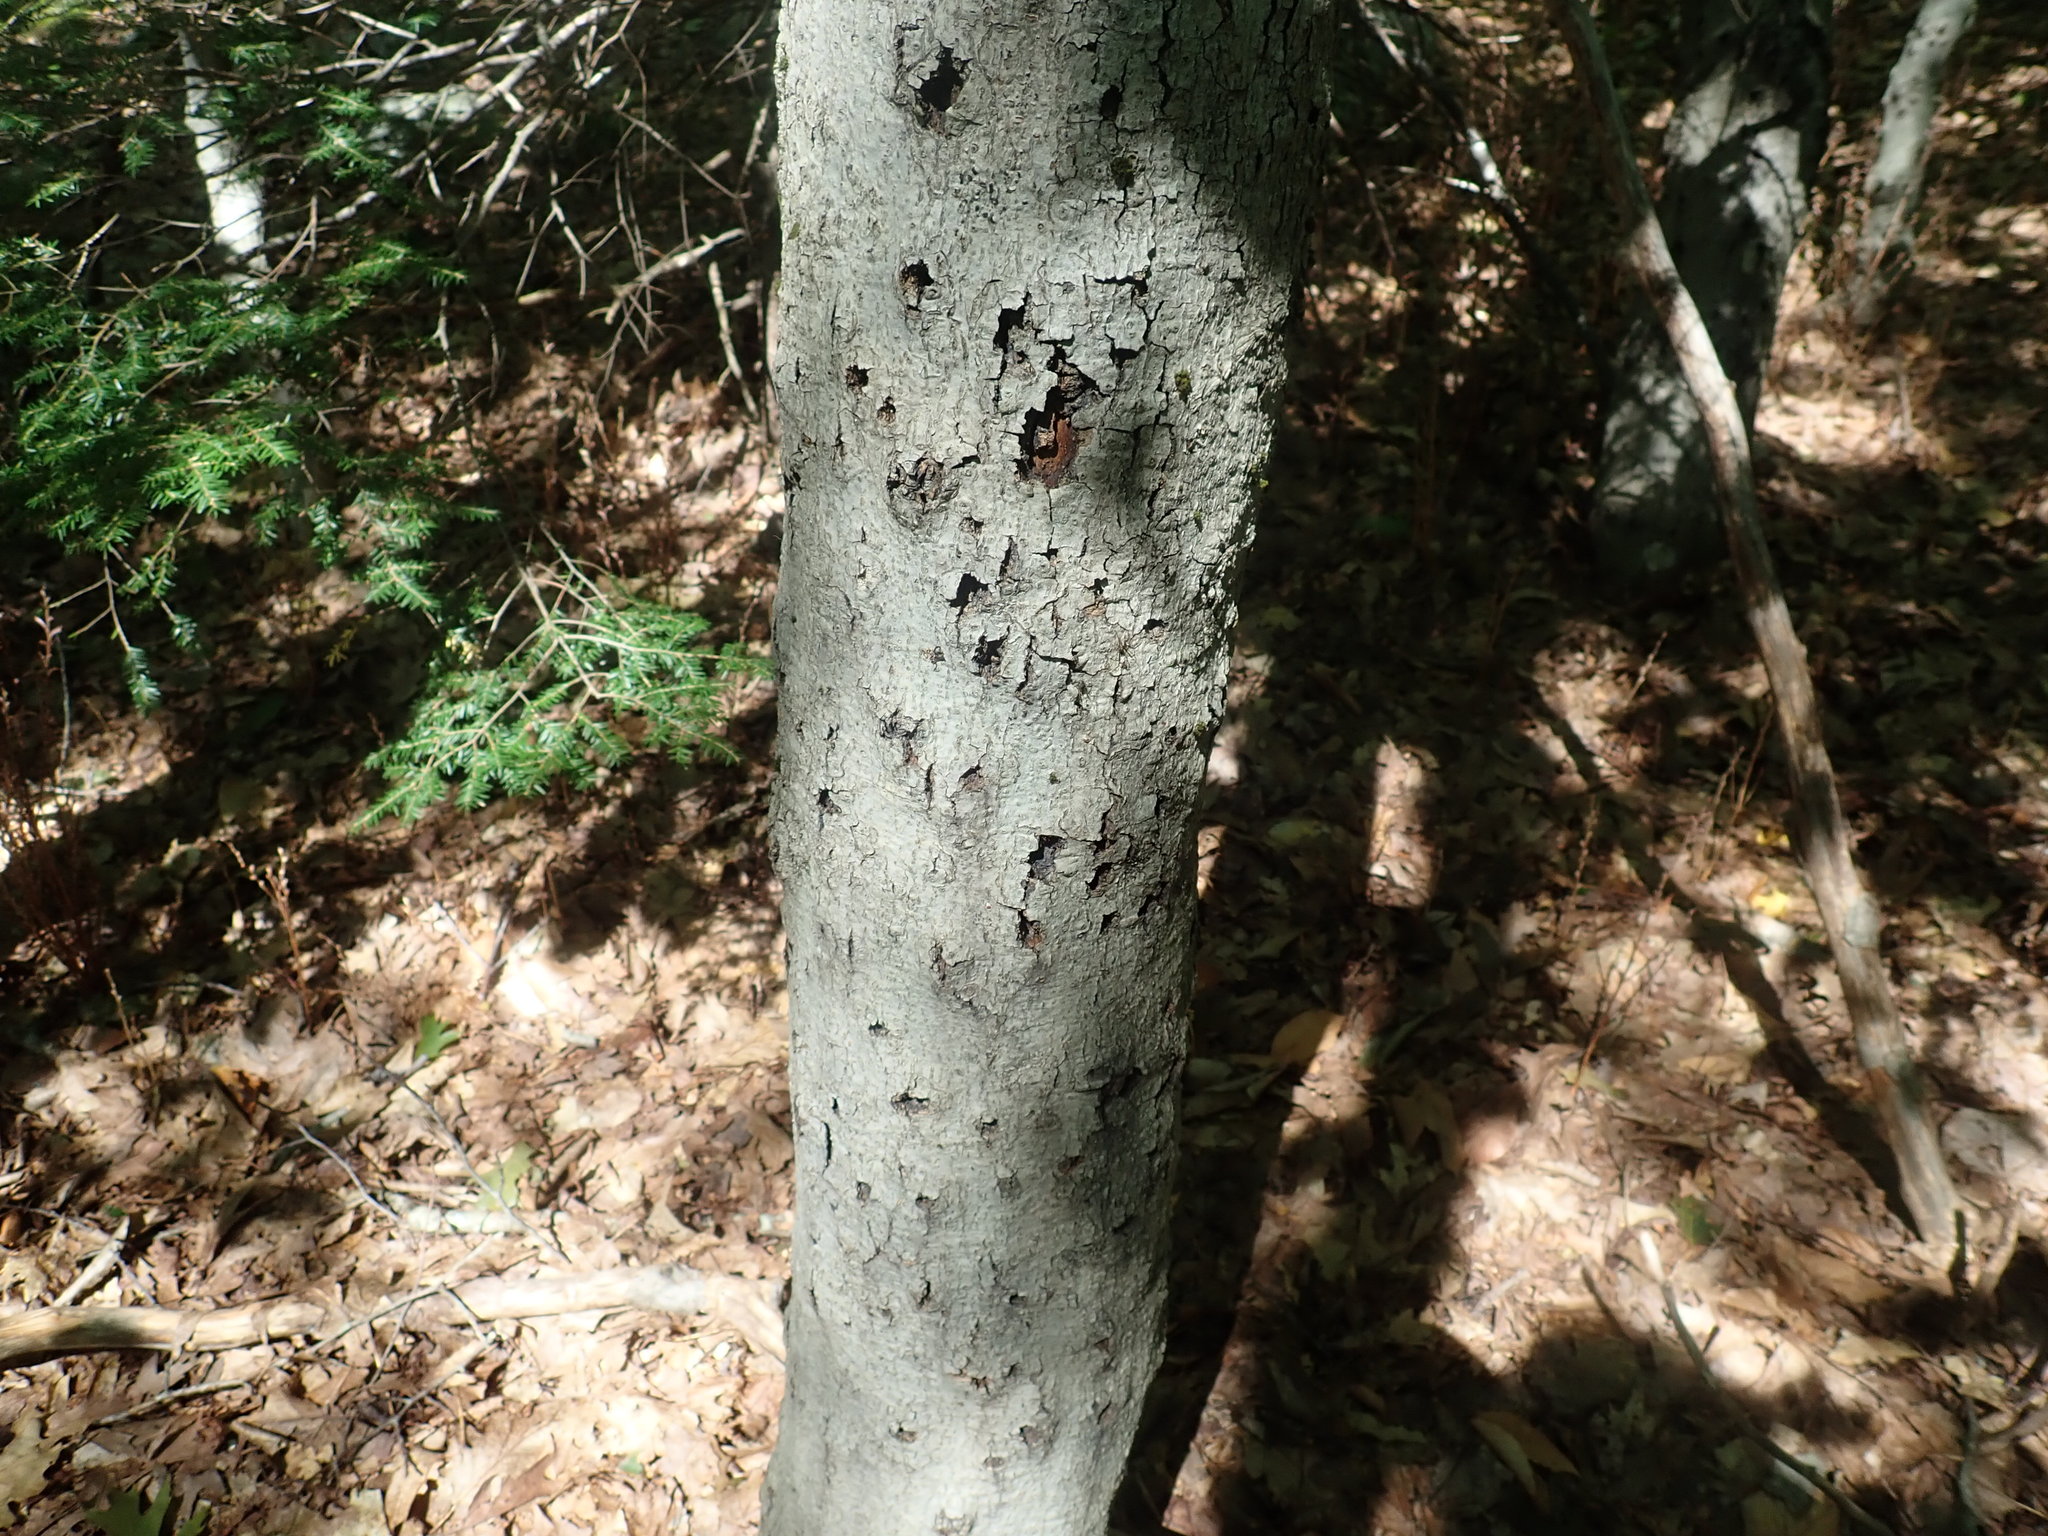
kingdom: Fungi
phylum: Ascomycota
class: Sordariomycetes
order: Hypocreales
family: Nectriaceae
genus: Neonectria
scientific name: Neonectria faginata
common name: Beech bark canker
